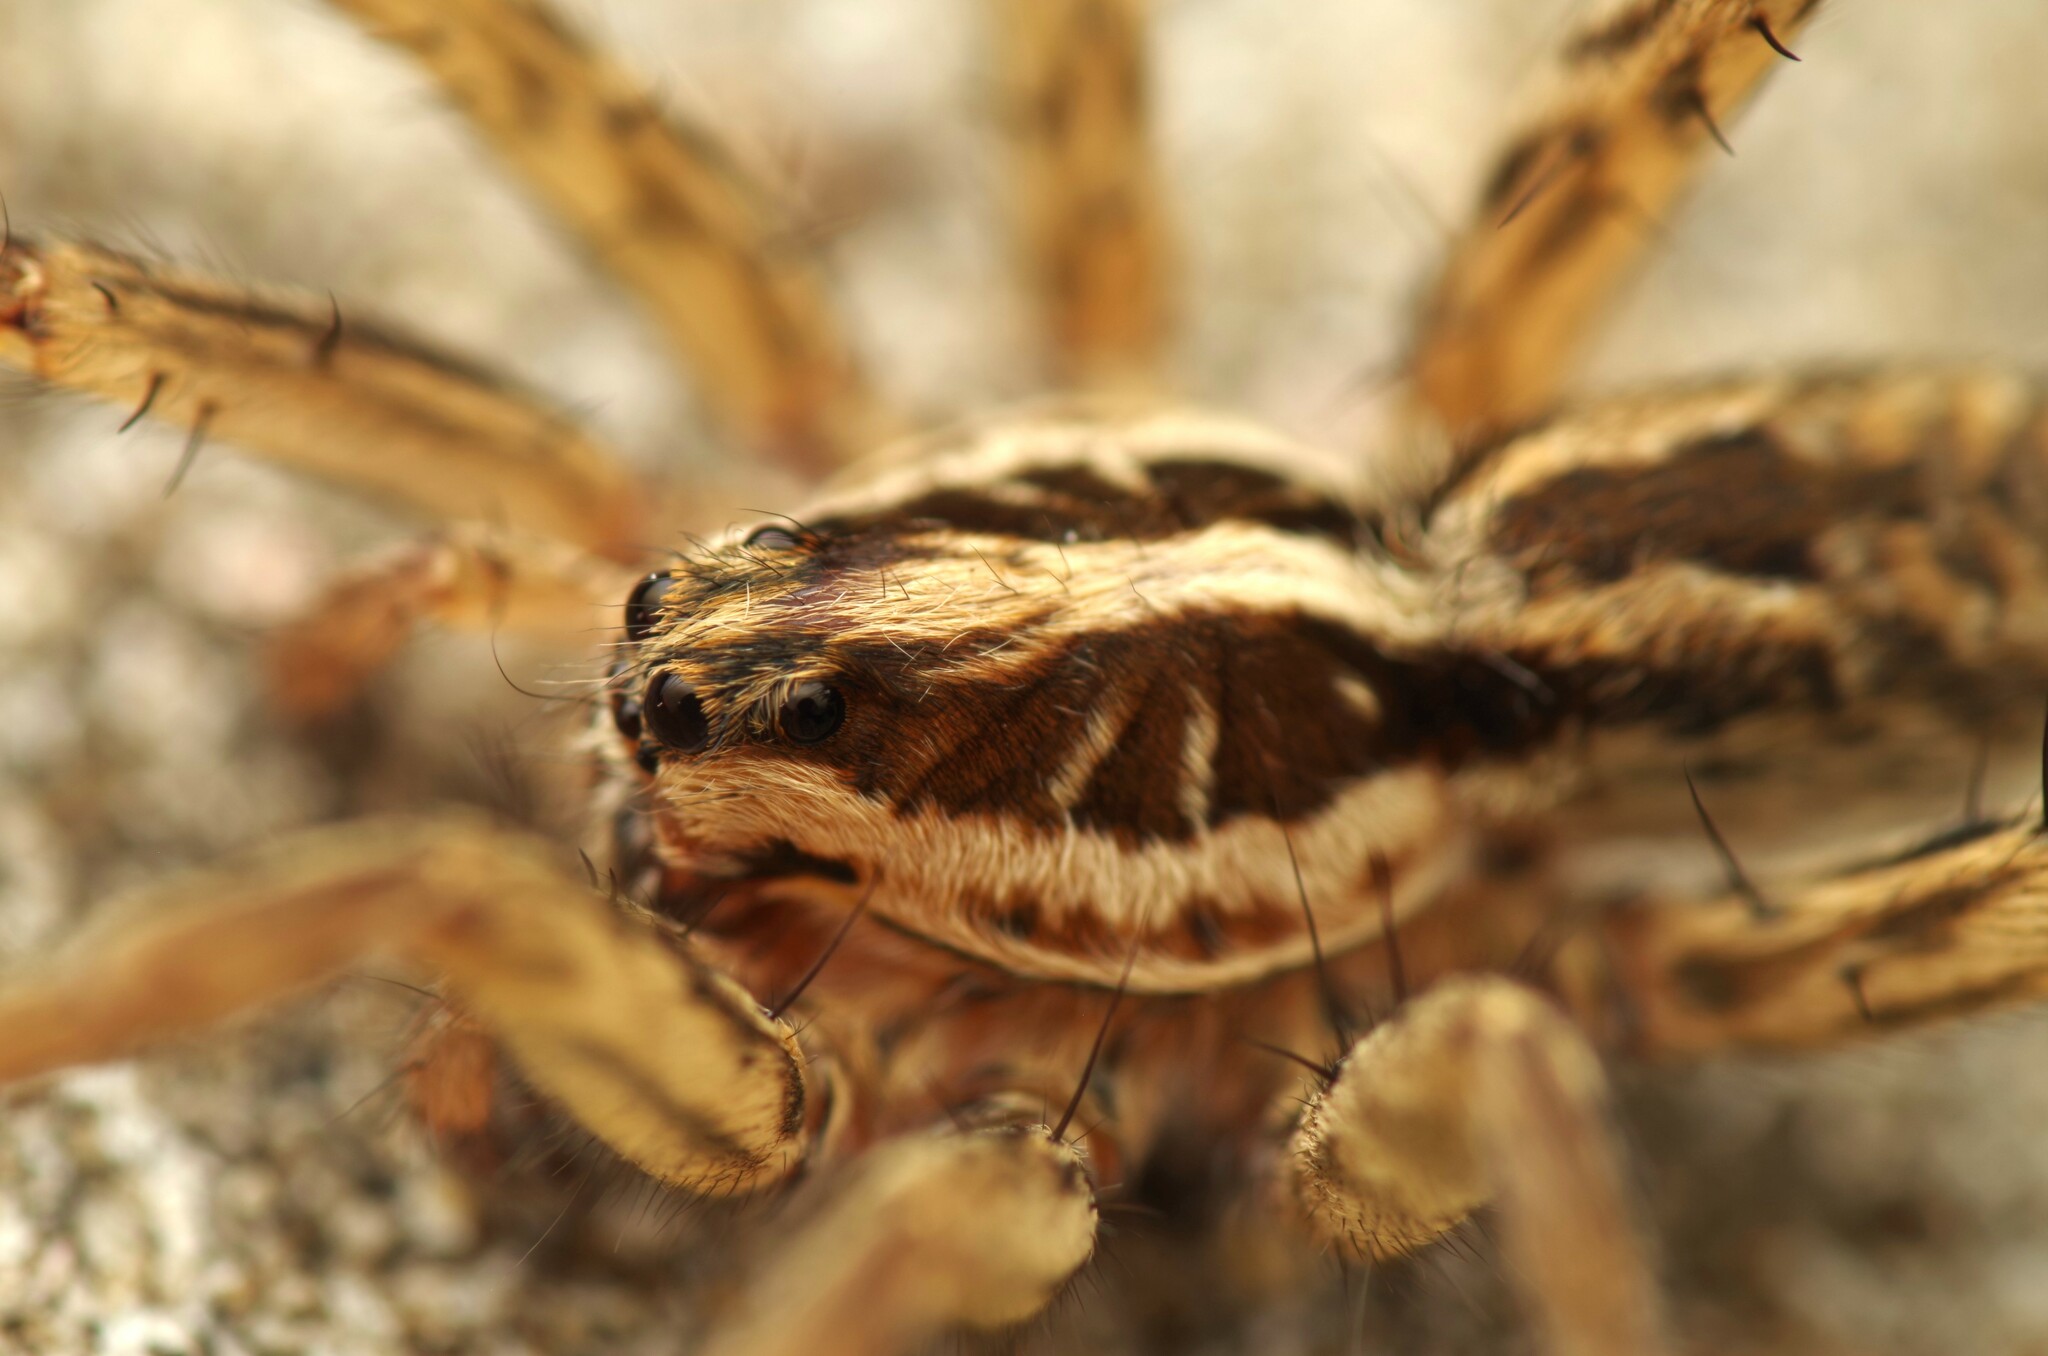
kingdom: Animalia
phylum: Arthropoda
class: Arachnida
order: Araneae
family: Lycosidae
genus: Hogna
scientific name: Hogna radiata
